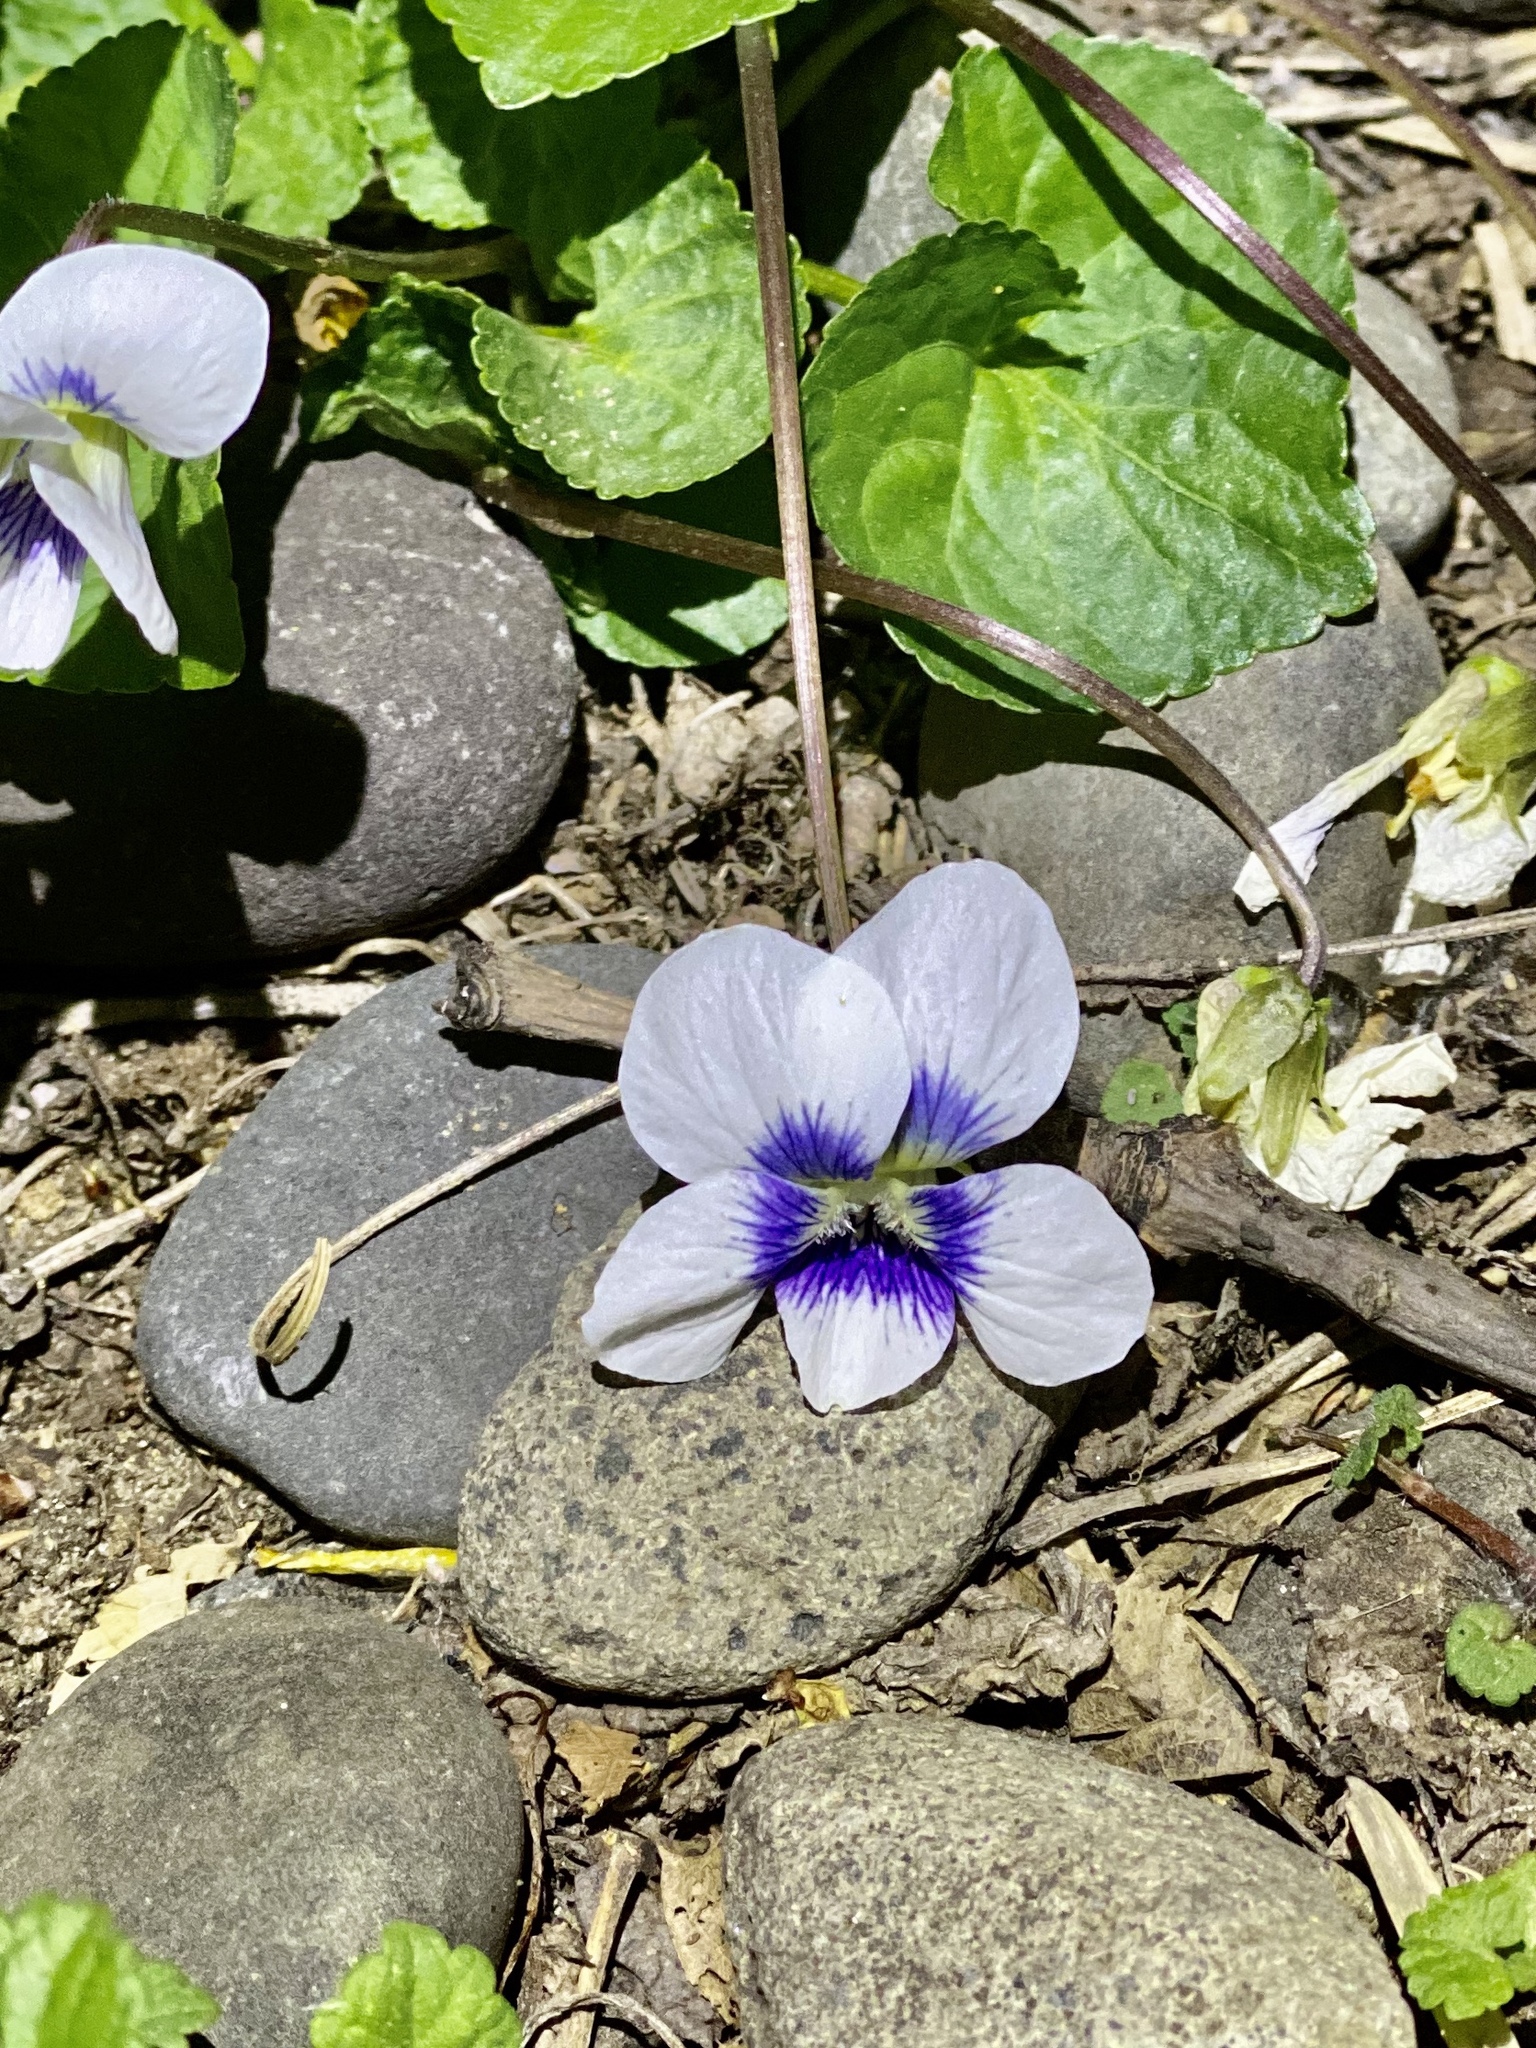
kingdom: Plantae
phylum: Tracheophyta
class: Magnoliopsida
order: Malpighiales
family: Violaceae
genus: Viola
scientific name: Viola sororia
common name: Dooryard violet
